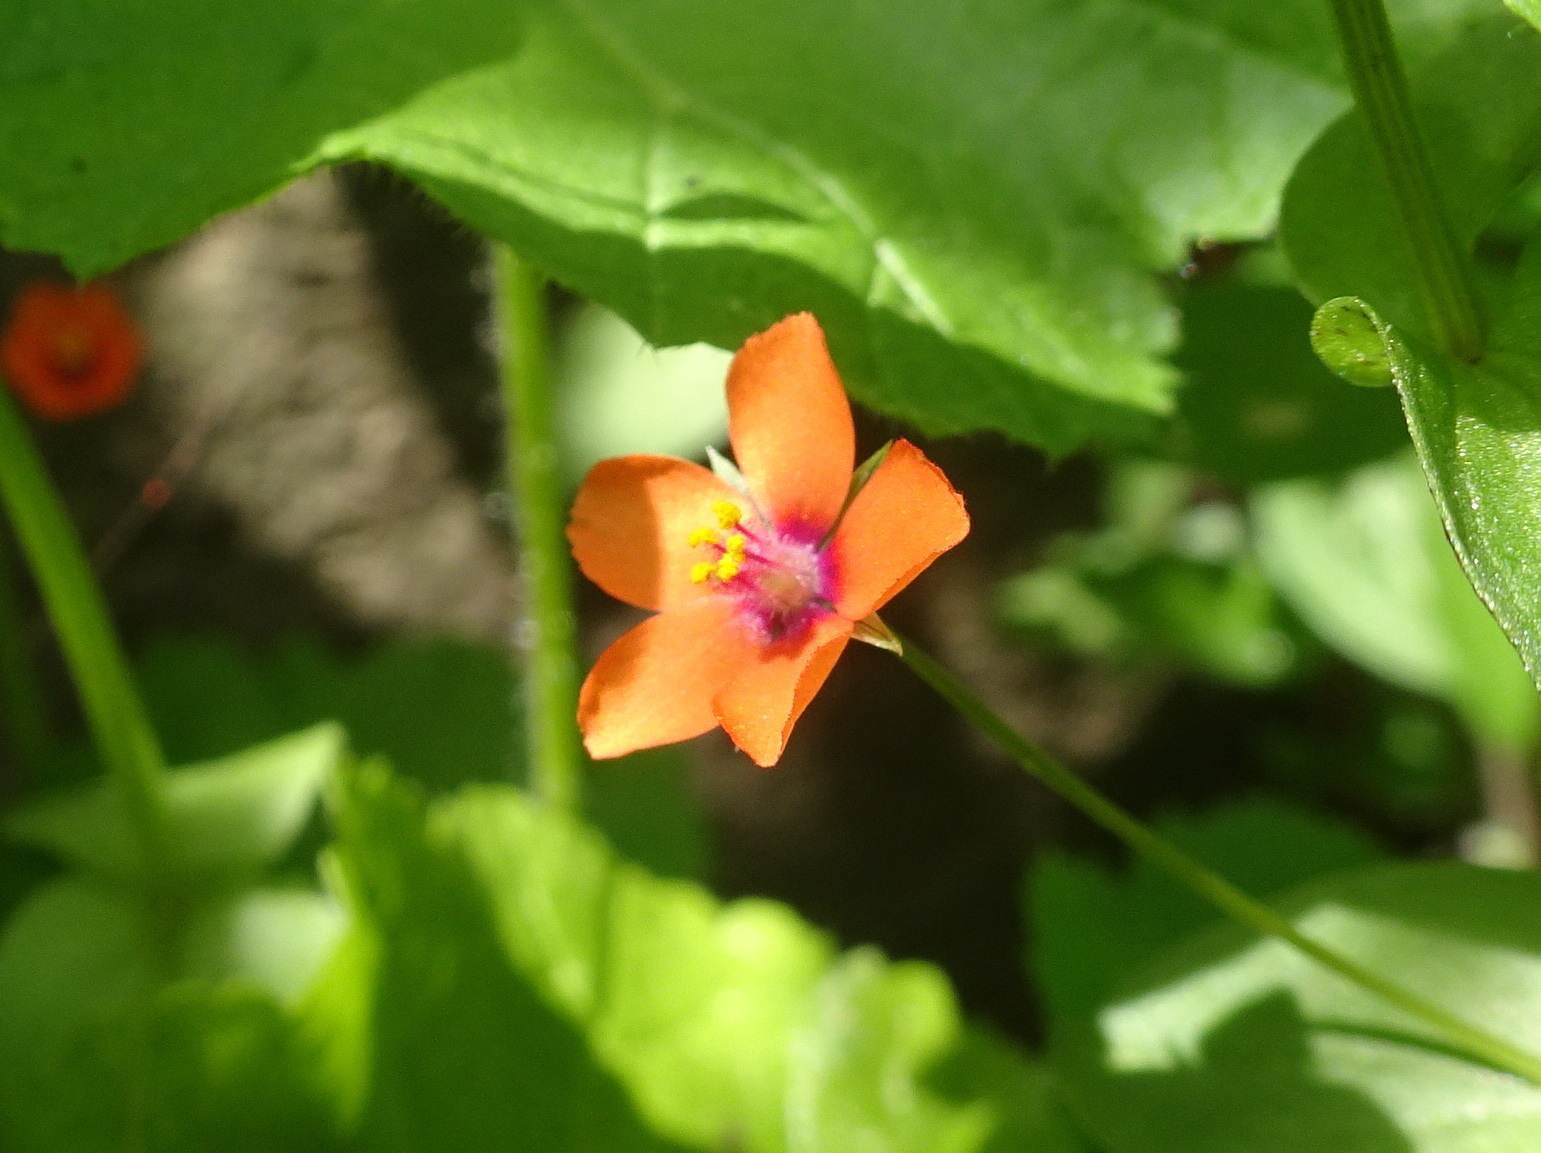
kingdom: Plantae
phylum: Tracheophyta
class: Magnoliopsida
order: Ericales
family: Primulaceae
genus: Lysimachia
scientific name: Lysimachia arvensis
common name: Scarlet pimpernel
